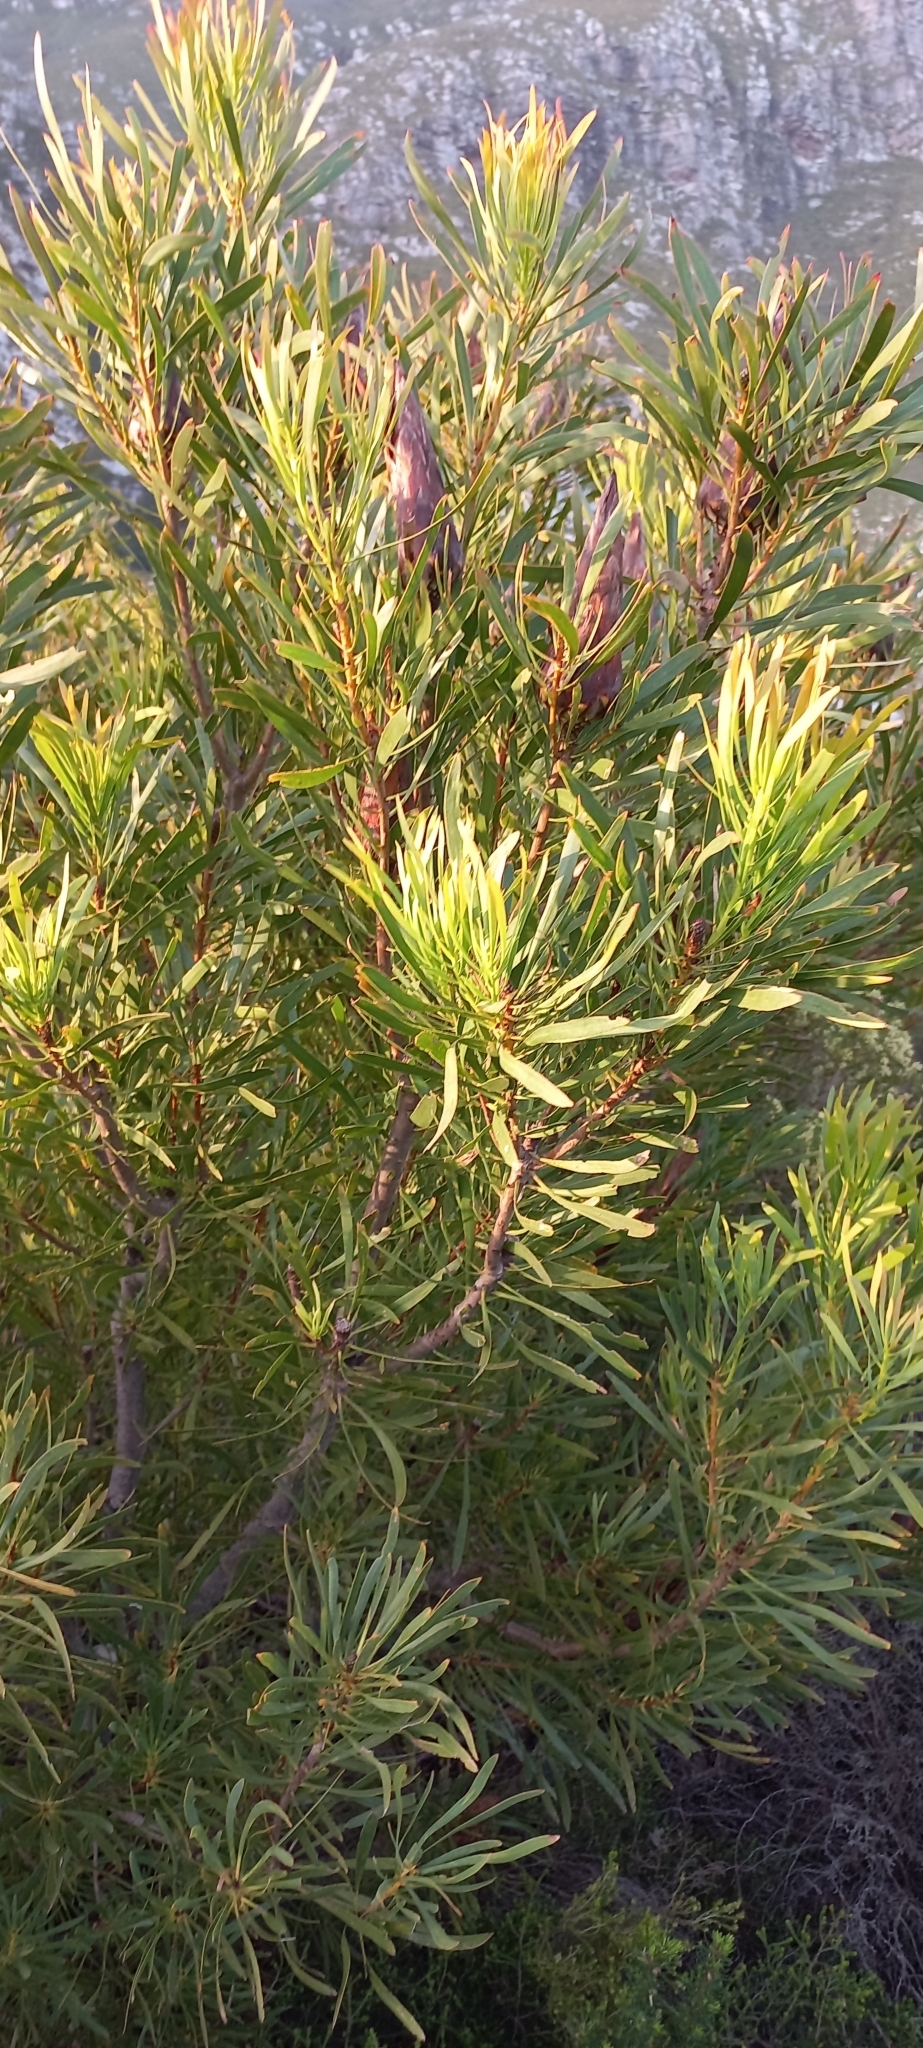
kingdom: Plantae
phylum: Tracheophyta
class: Magnoliopsida
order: Proteales
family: Proteaceae
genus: Protea
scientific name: Protea repens
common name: Sugarbush
